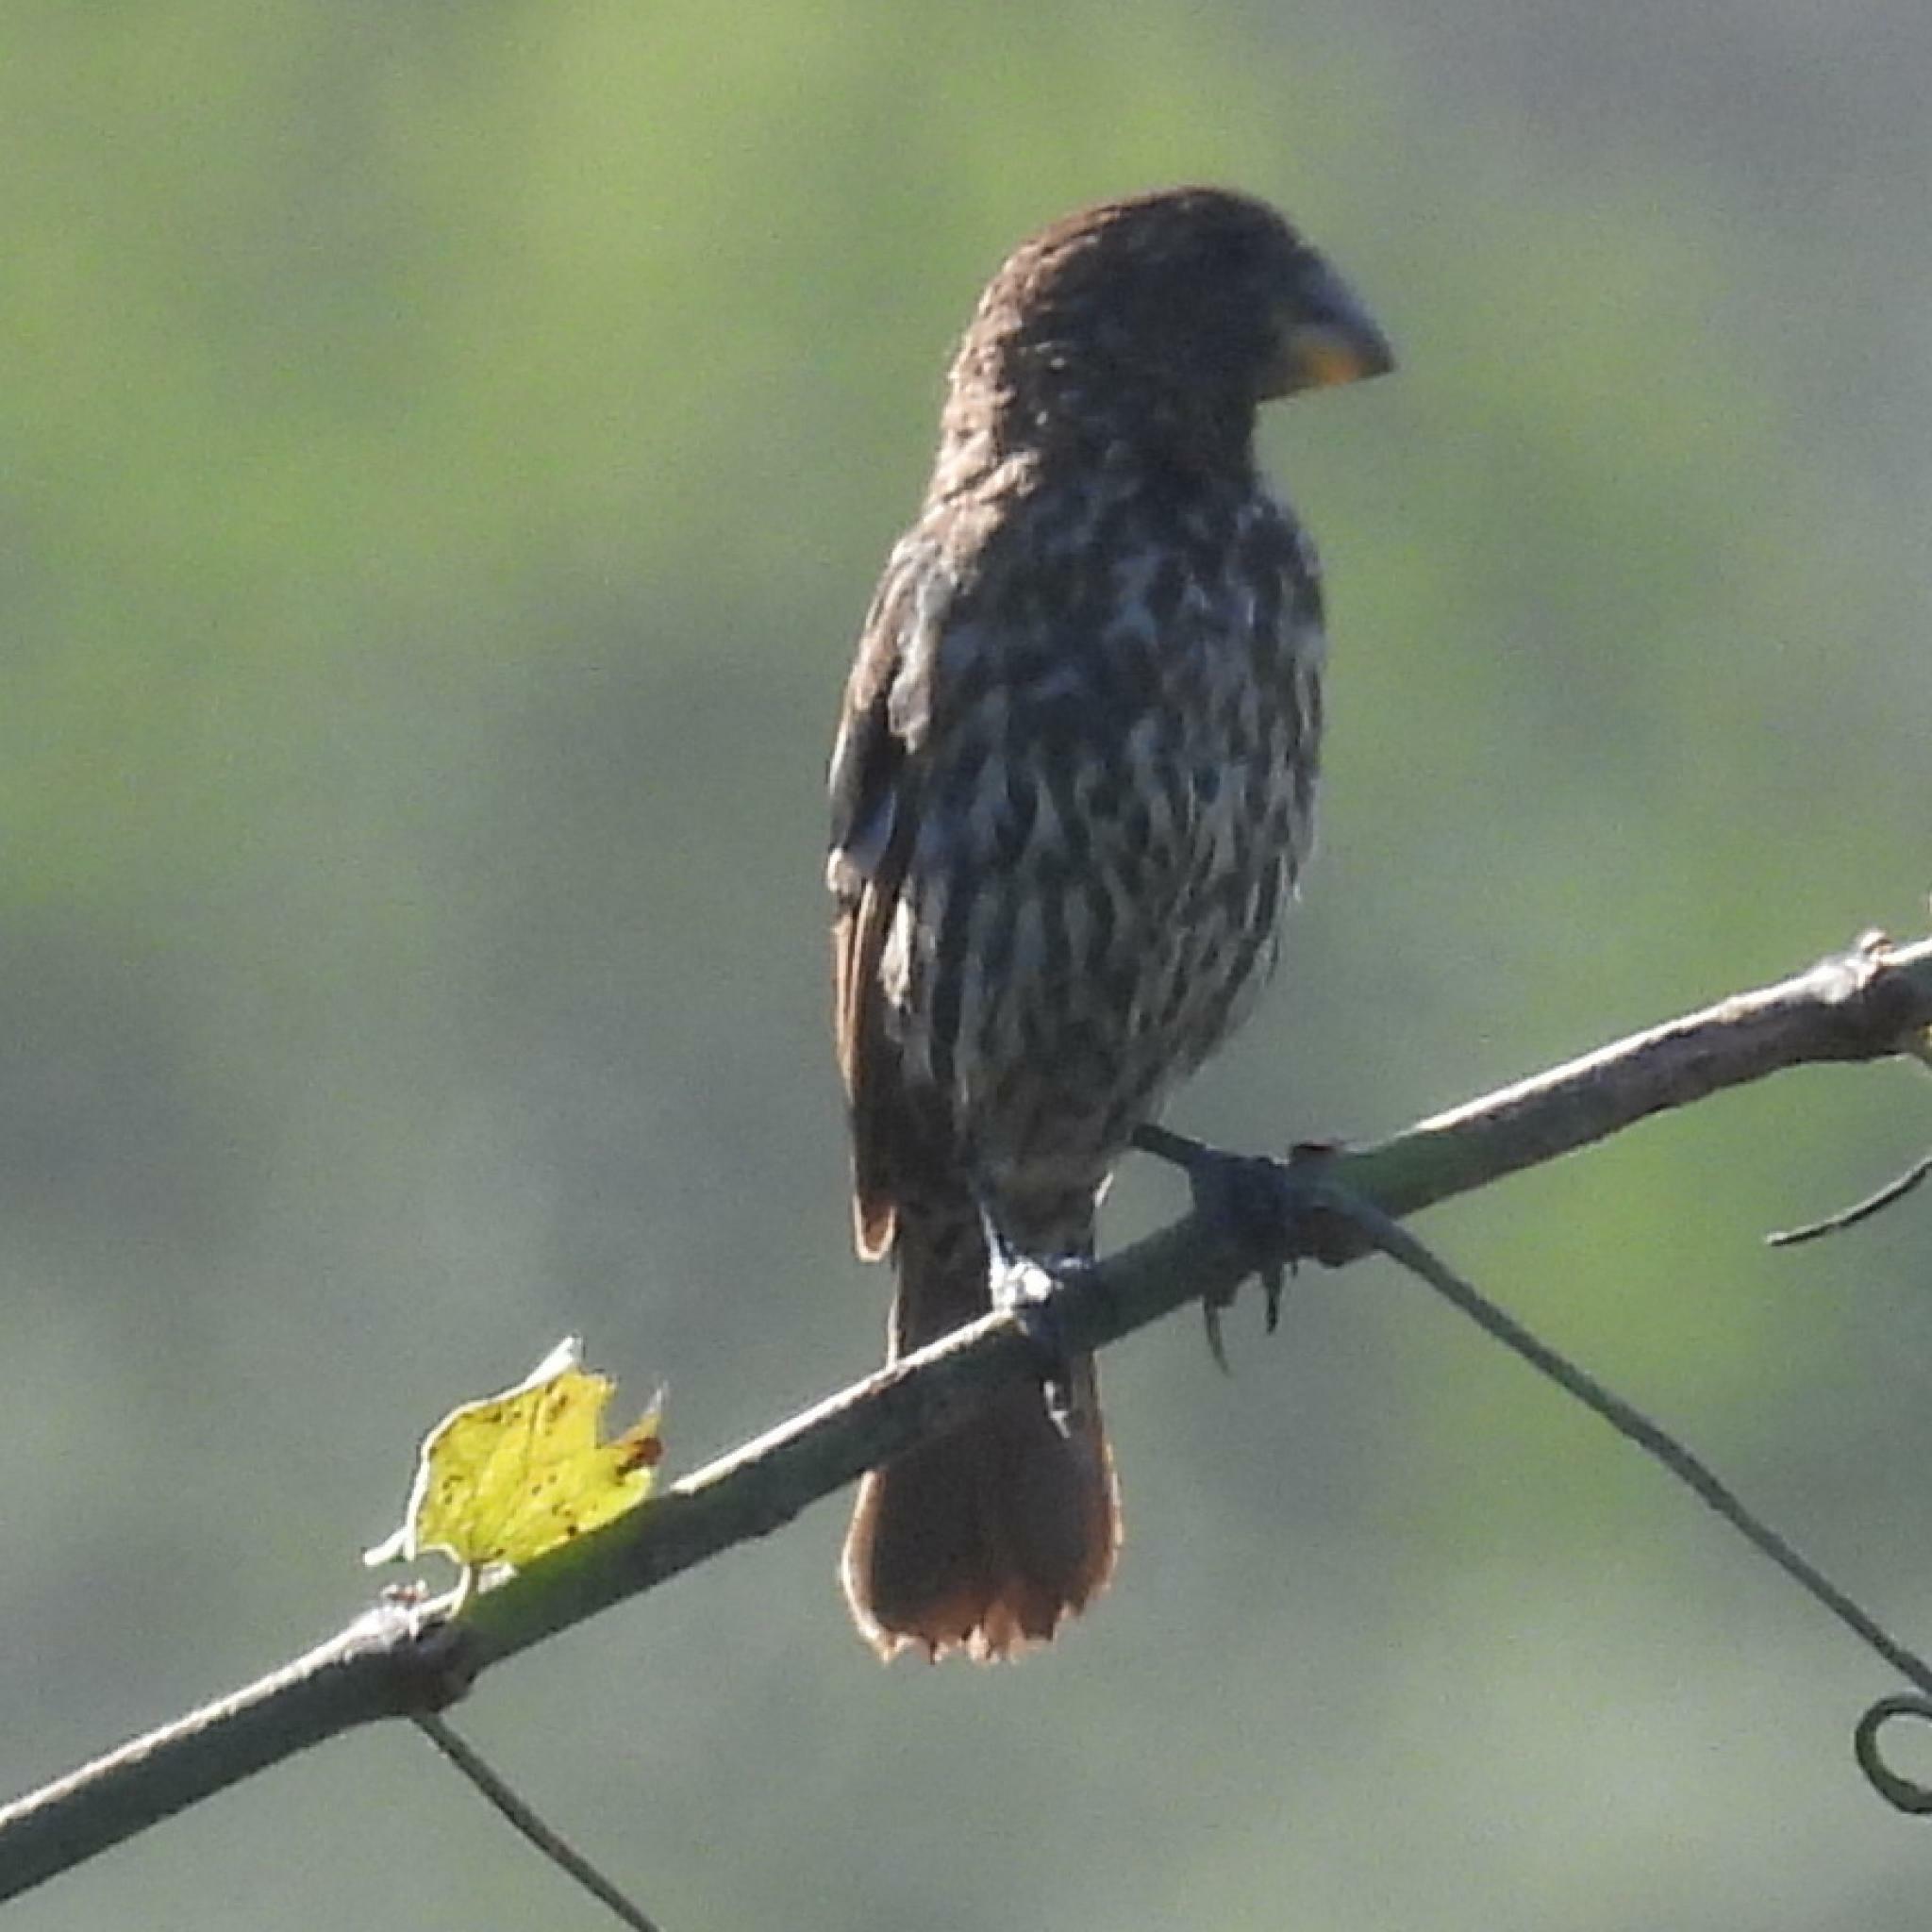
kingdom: Animalia
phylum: Chordata
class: Aves
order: Passeriformes
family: Ploceidae
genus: Amblyospiza
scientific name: Amblyospiza albifrons
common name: Thick-billed weaver
